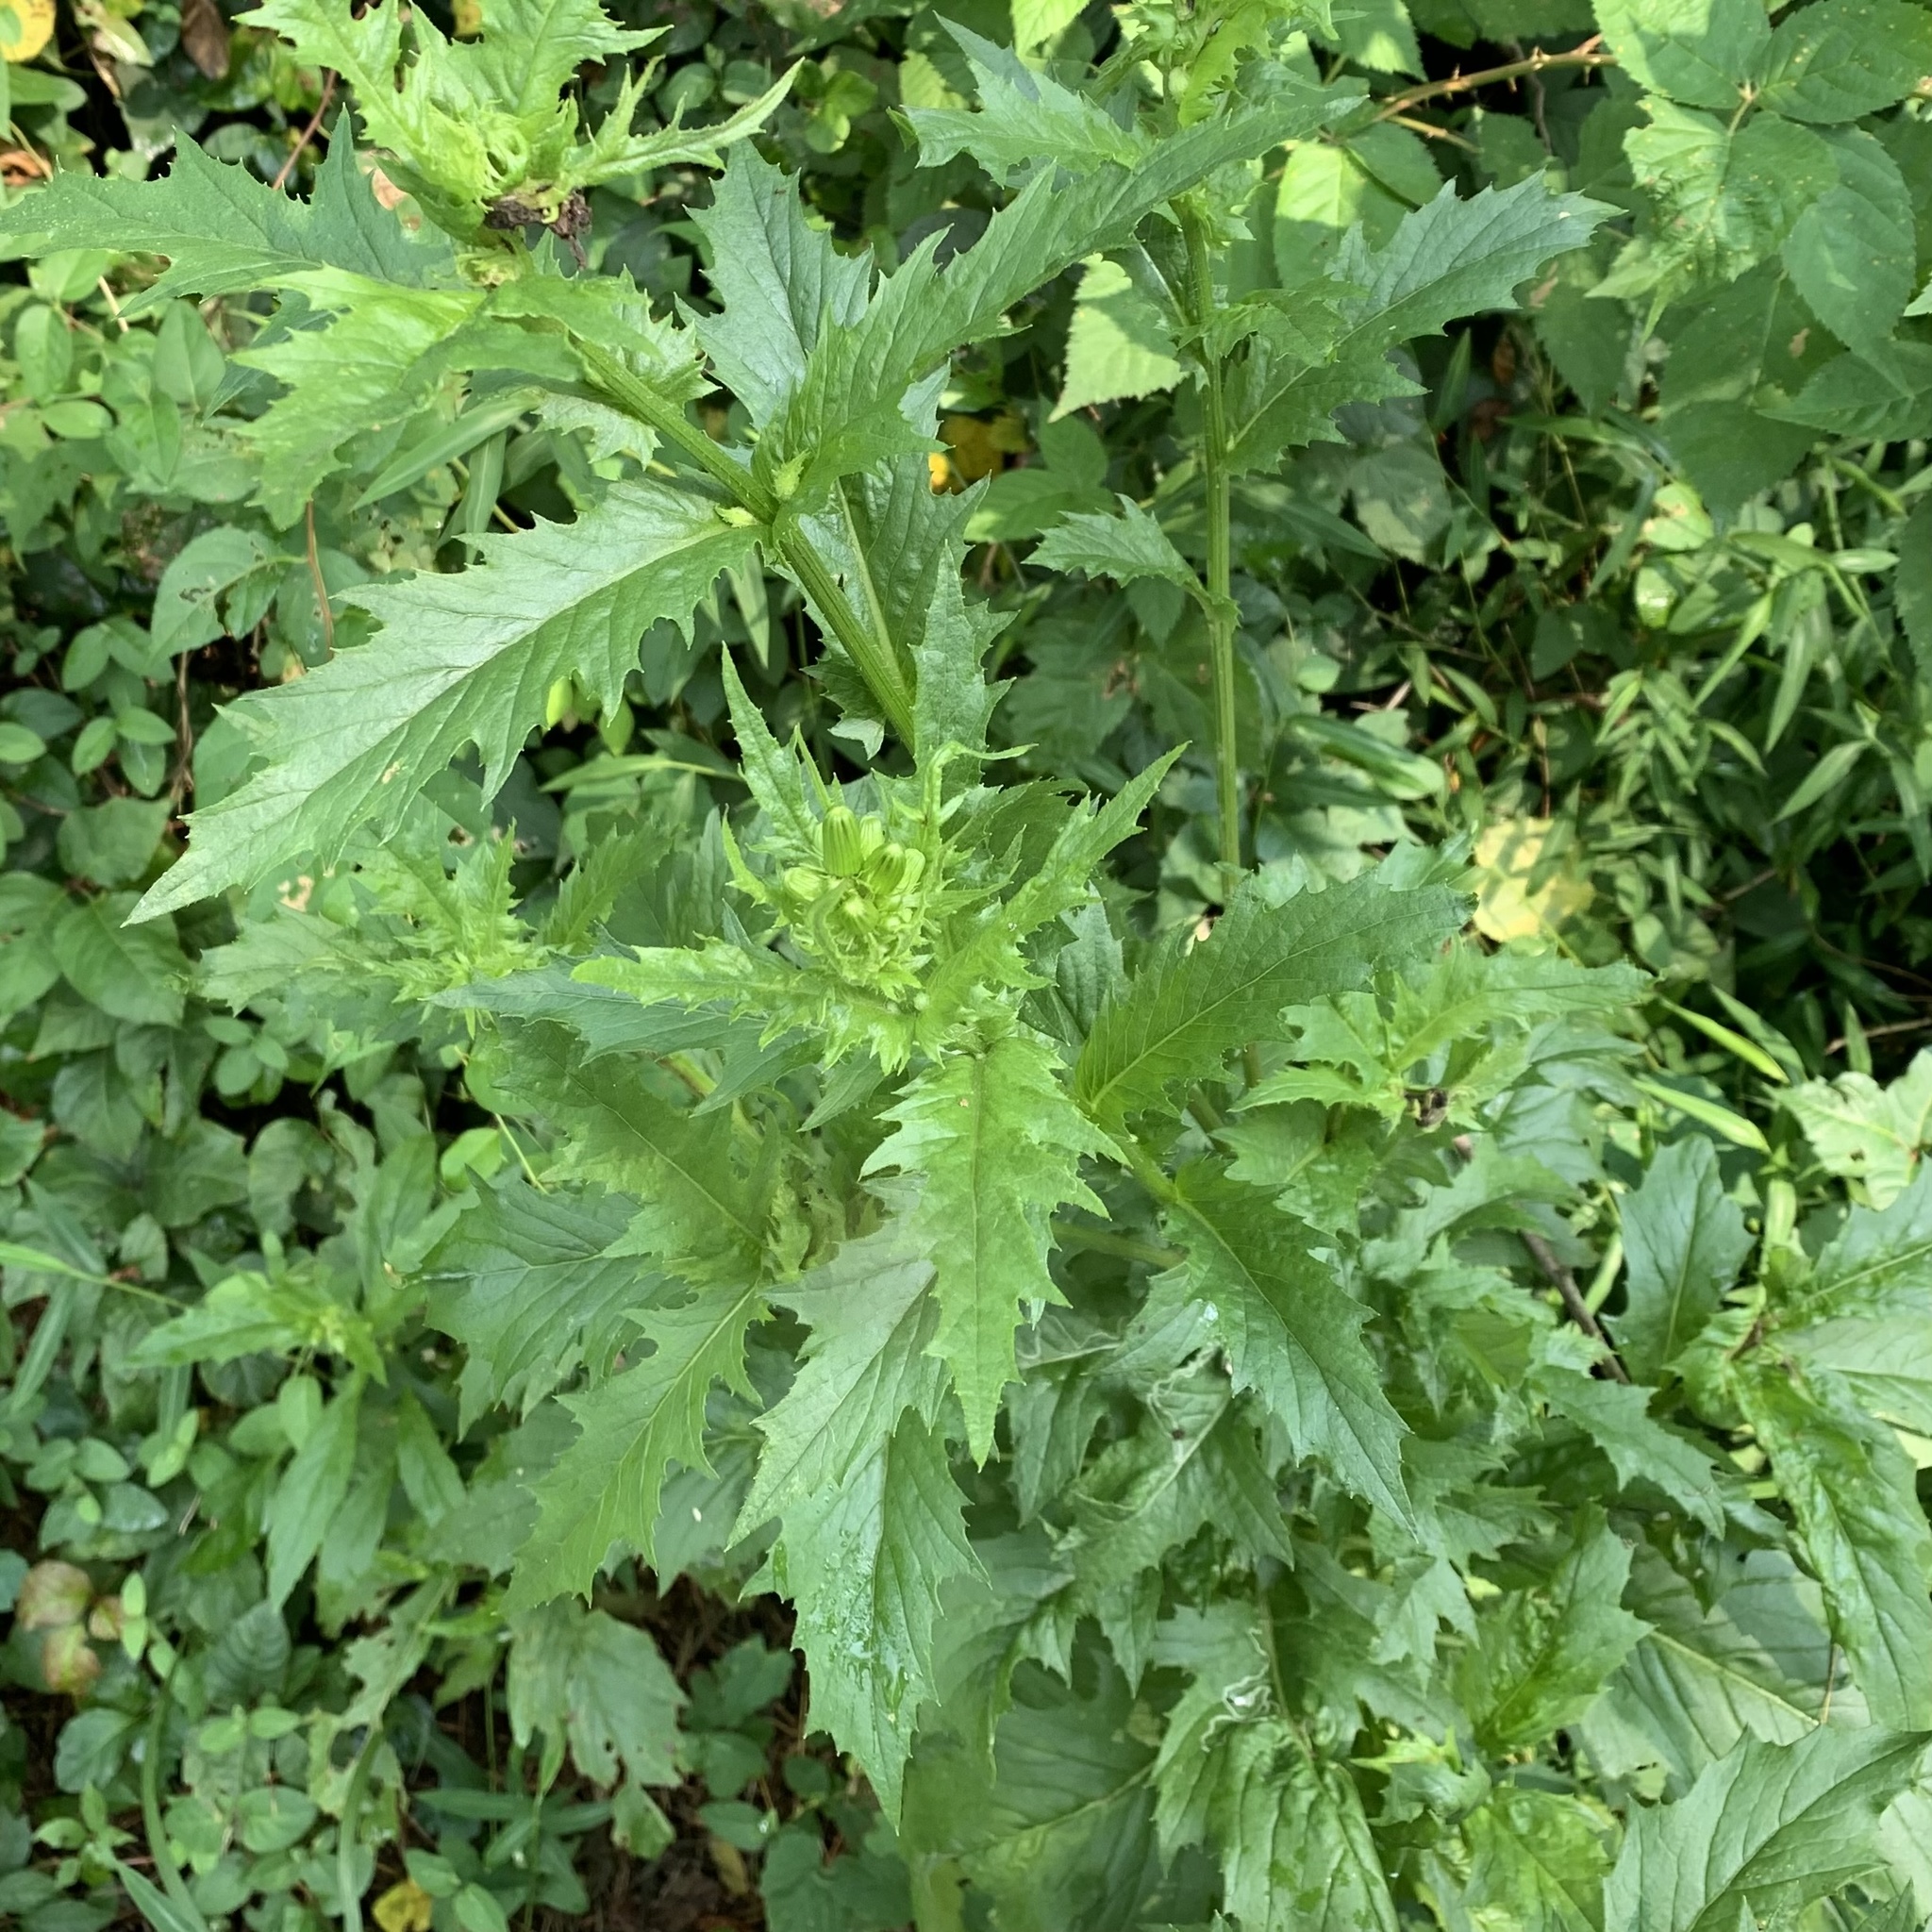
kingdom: Plantae
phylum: Tracheophyta
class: Magnoliopsida
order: Asterales
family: Asteraceae
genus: Erechtites
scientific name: Erechtites hieraciifolius
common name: American burnweed
